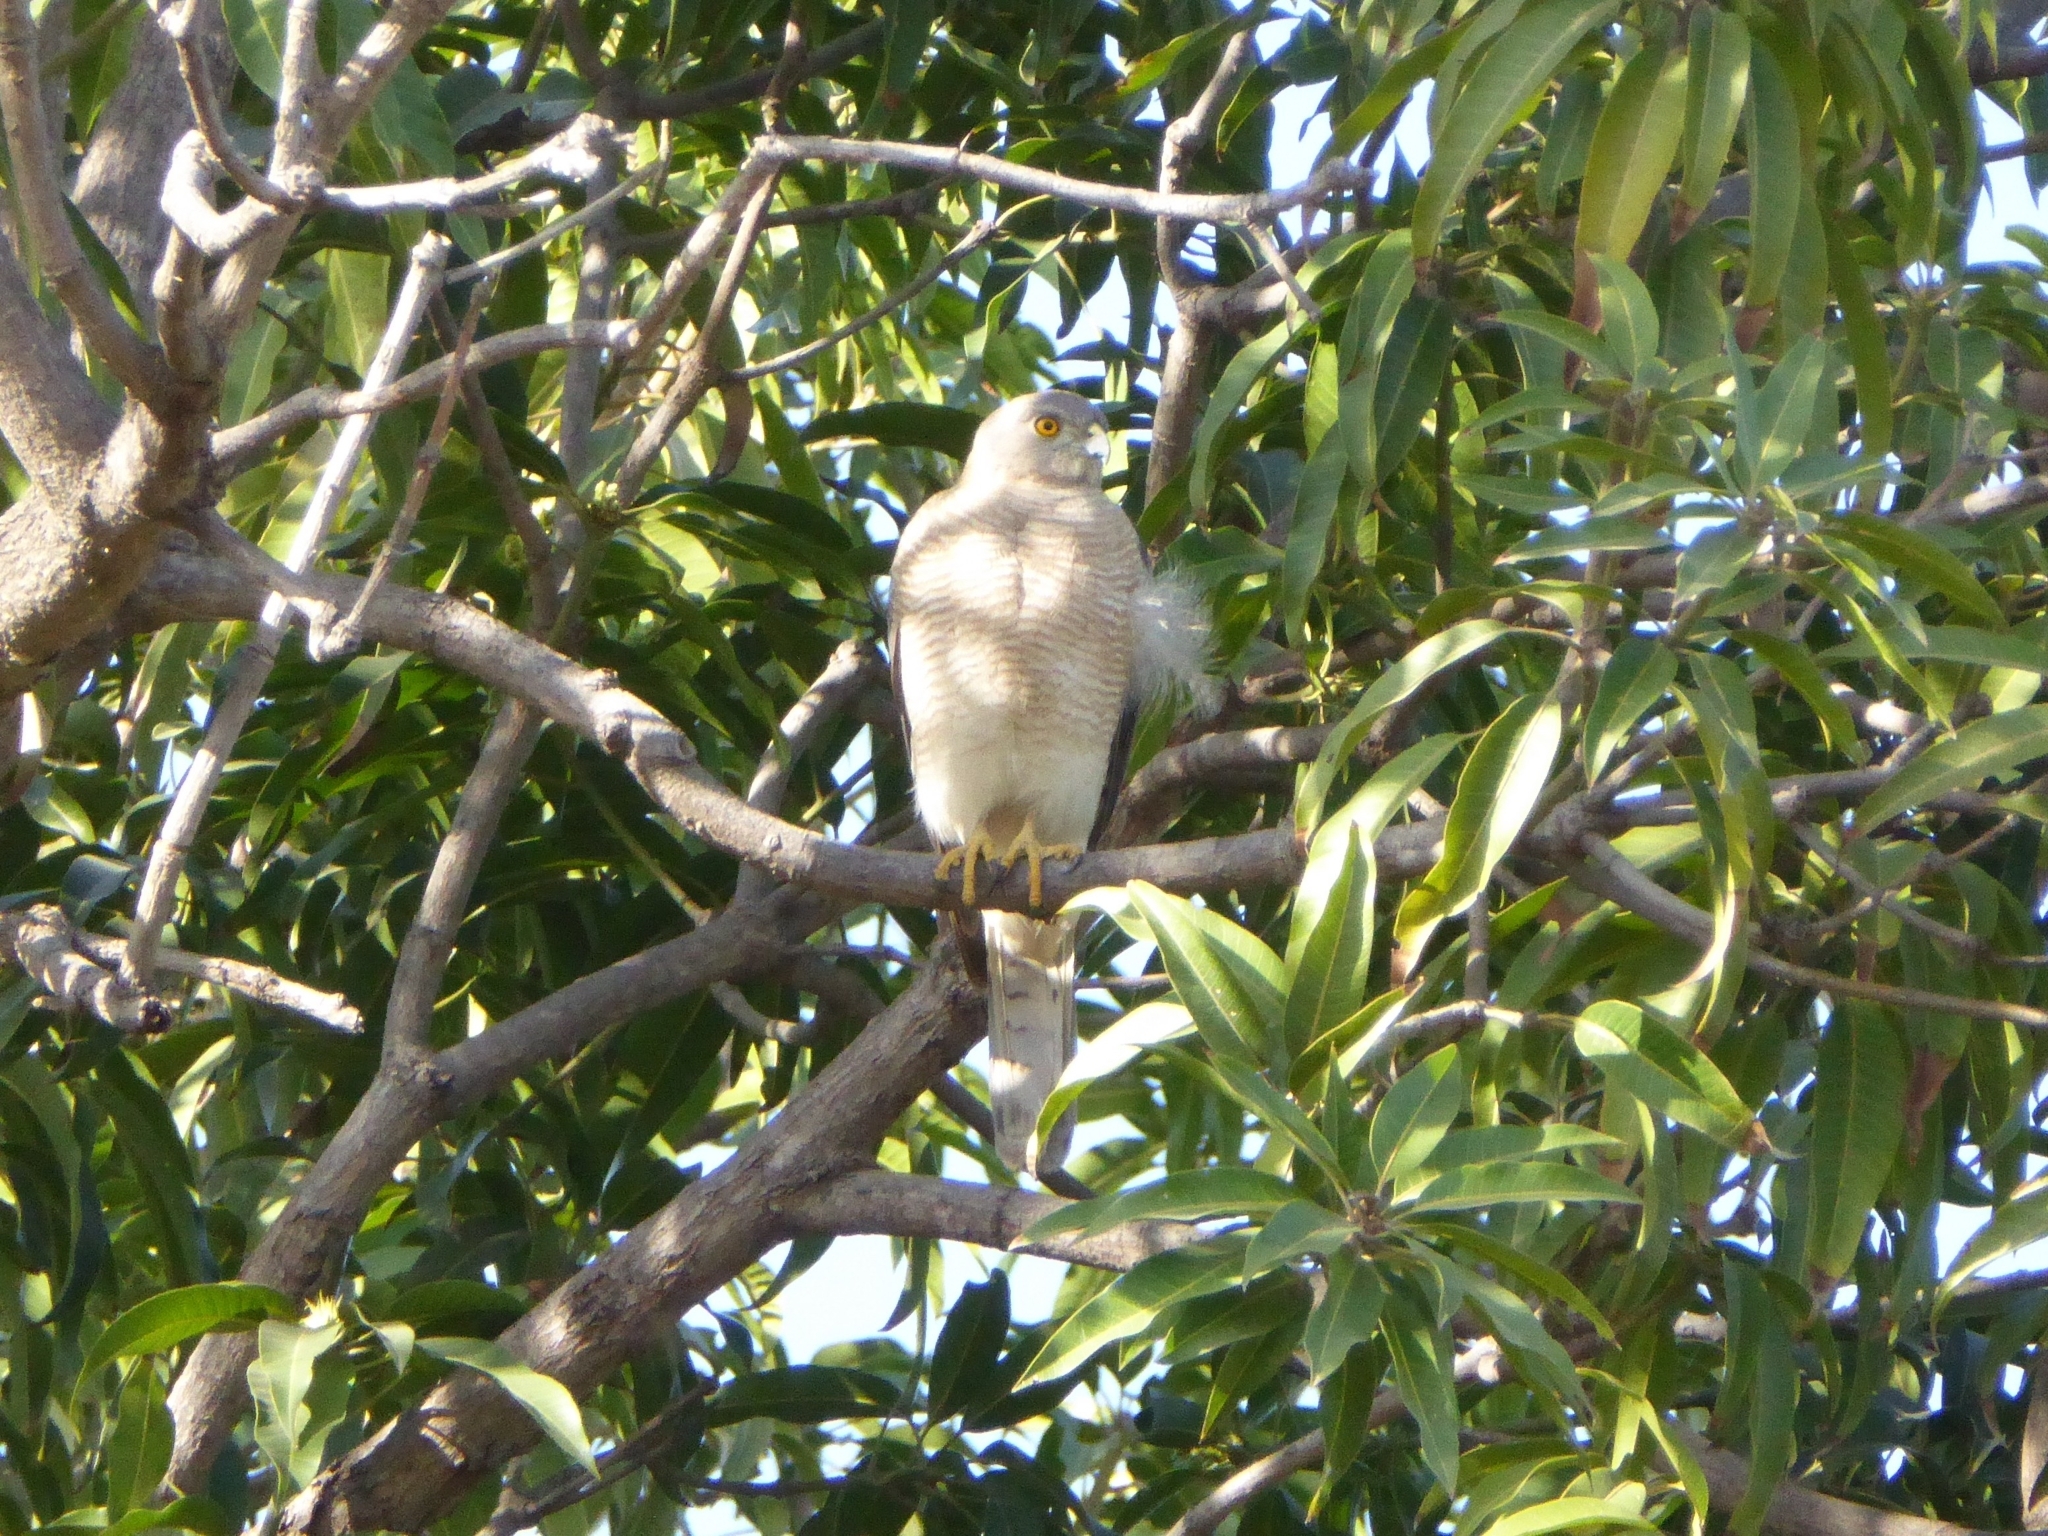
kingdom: Animalia
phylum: Chordata
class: Aves
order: Accipitriformes
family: Accipitridae
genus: Accipiter
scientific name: Accipiter badius
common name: Shikra
